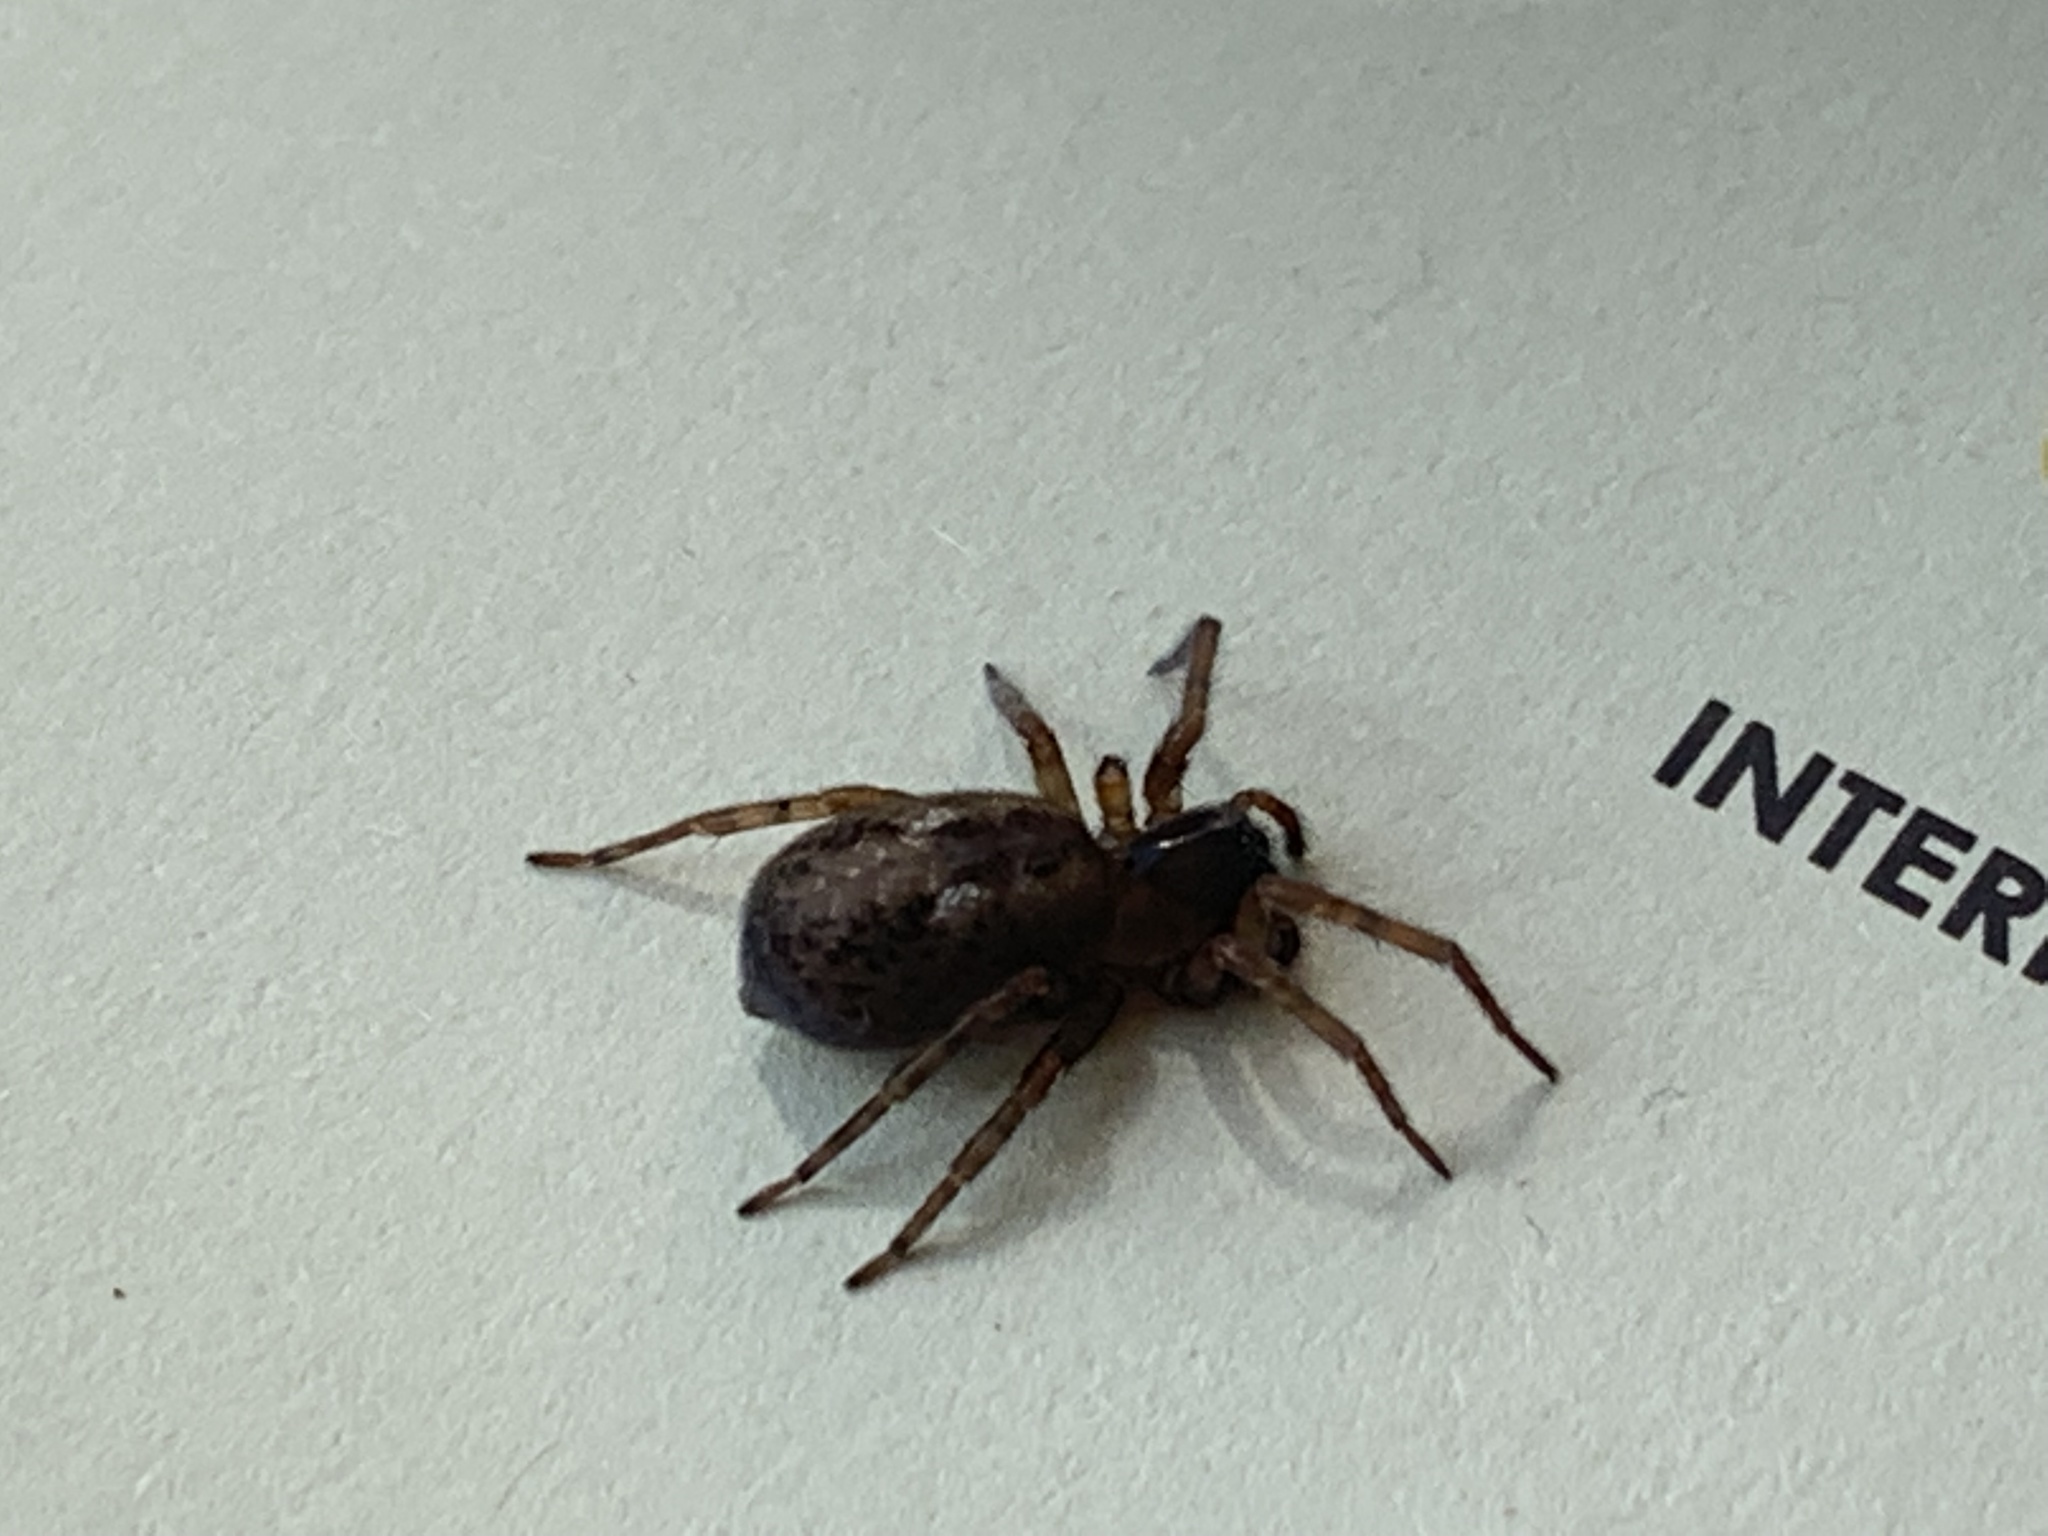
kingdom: Animalia
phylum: Arthropoda
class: Arachnida
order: Araneae
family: Amaurobiidae
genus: Amaurobius
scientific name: Amaurobius similis
